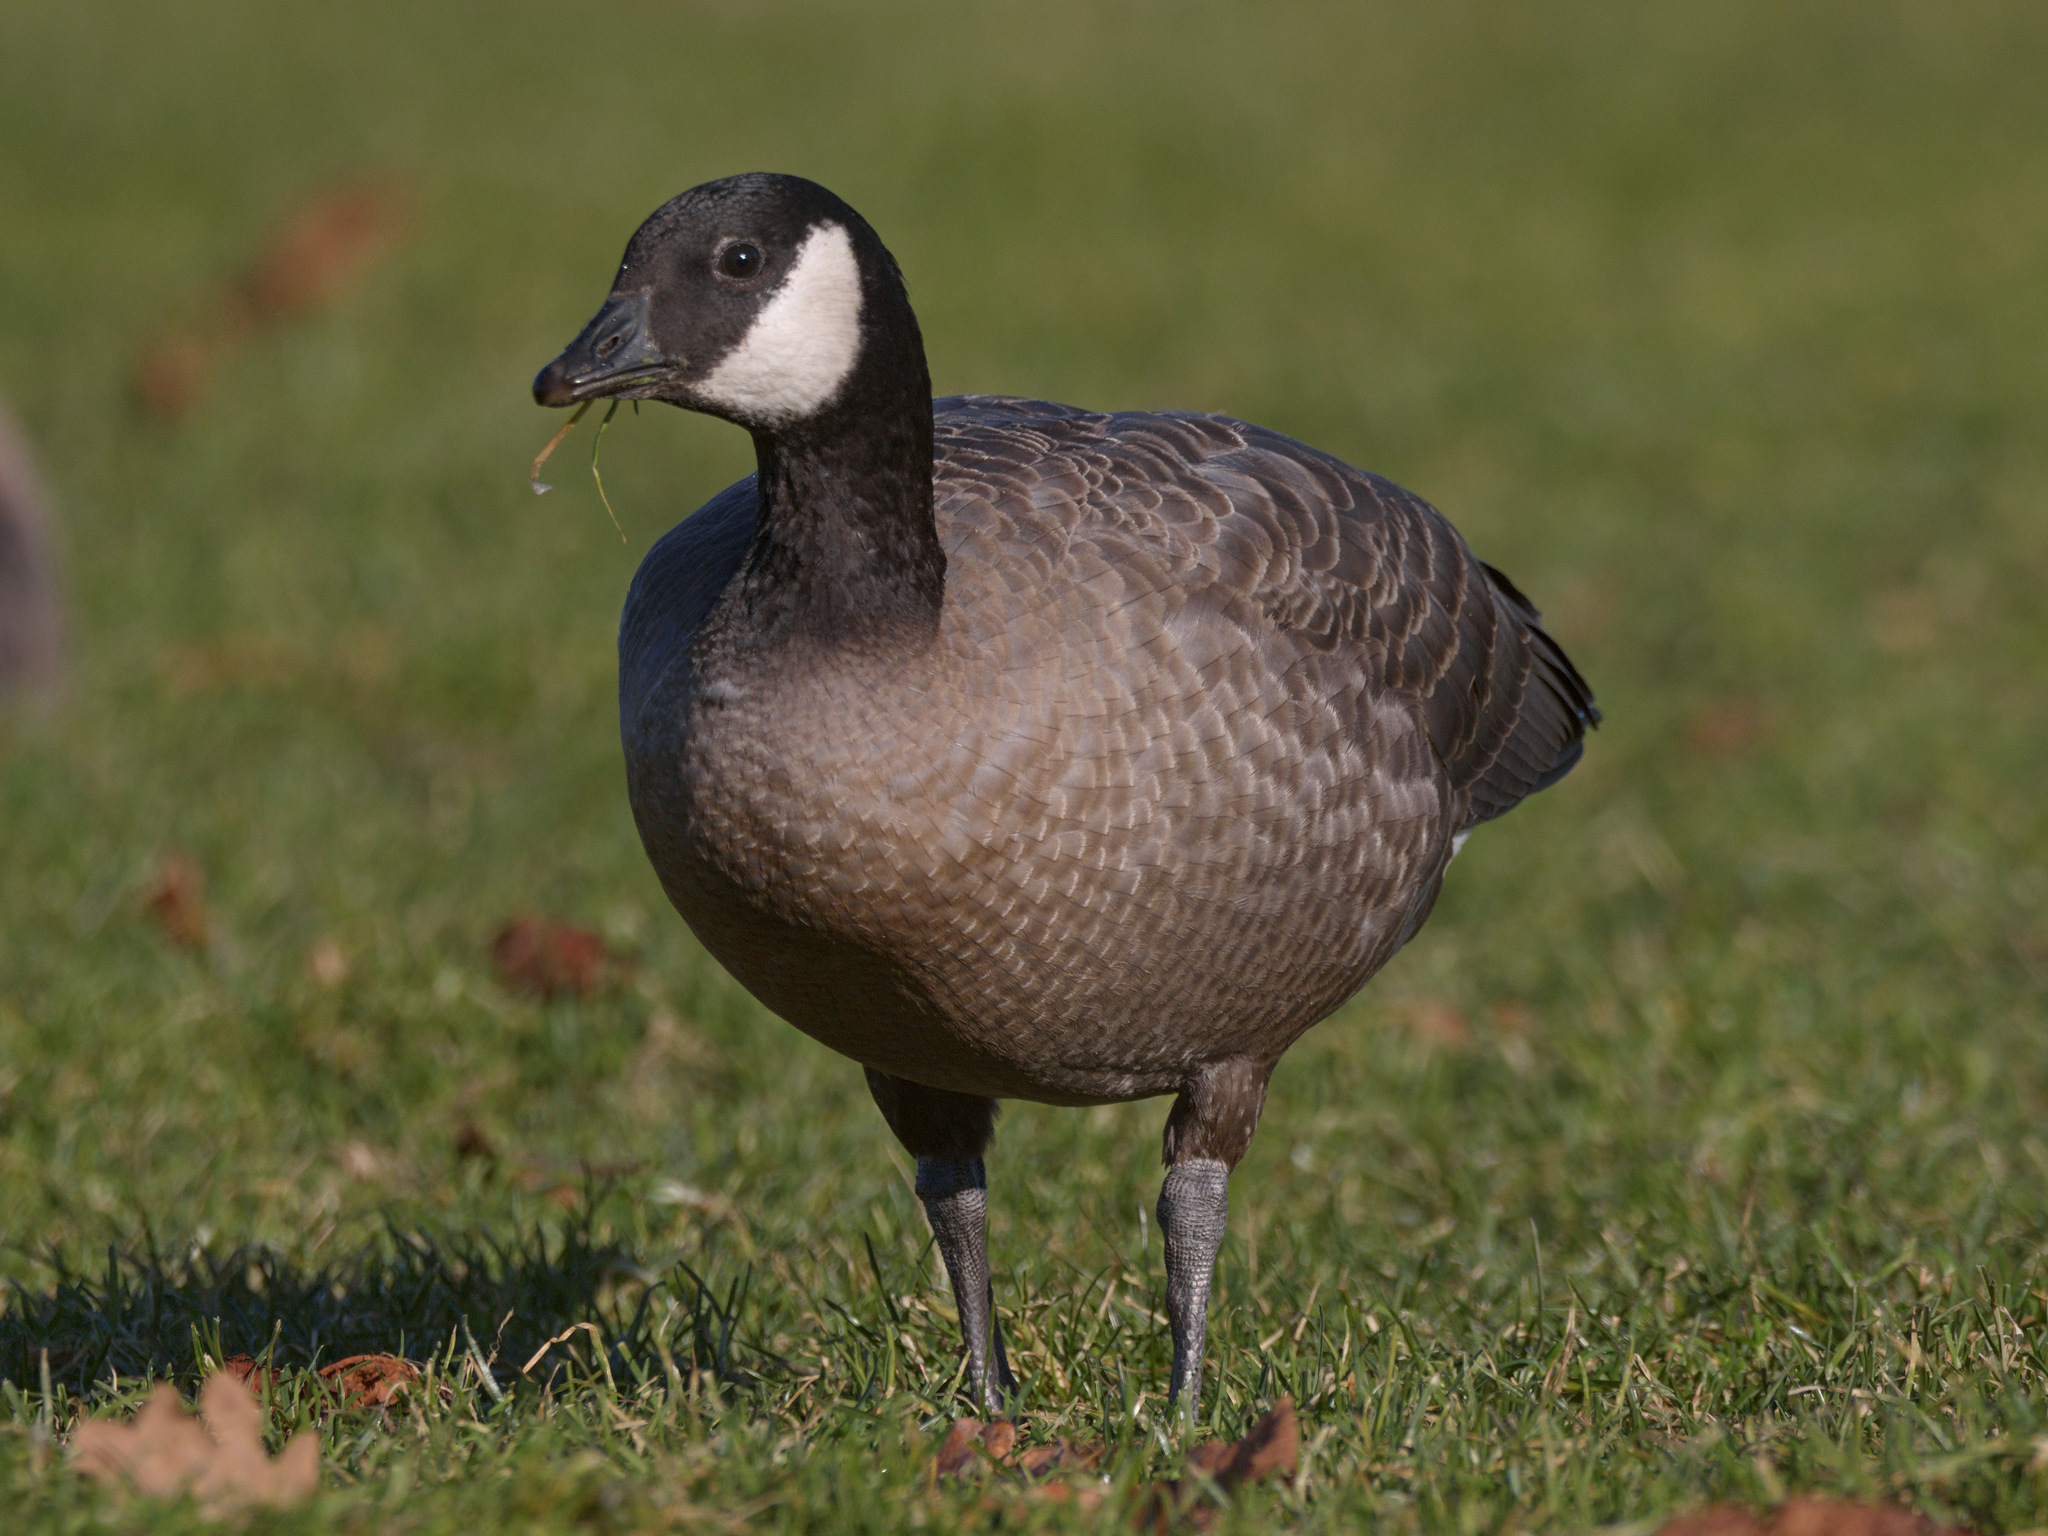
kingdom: Animalia
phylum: Chordata
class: Aves
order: Anseriformes
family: Anatidae
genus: Branta
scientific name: Branta hutchinsii
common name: Cackling goose
